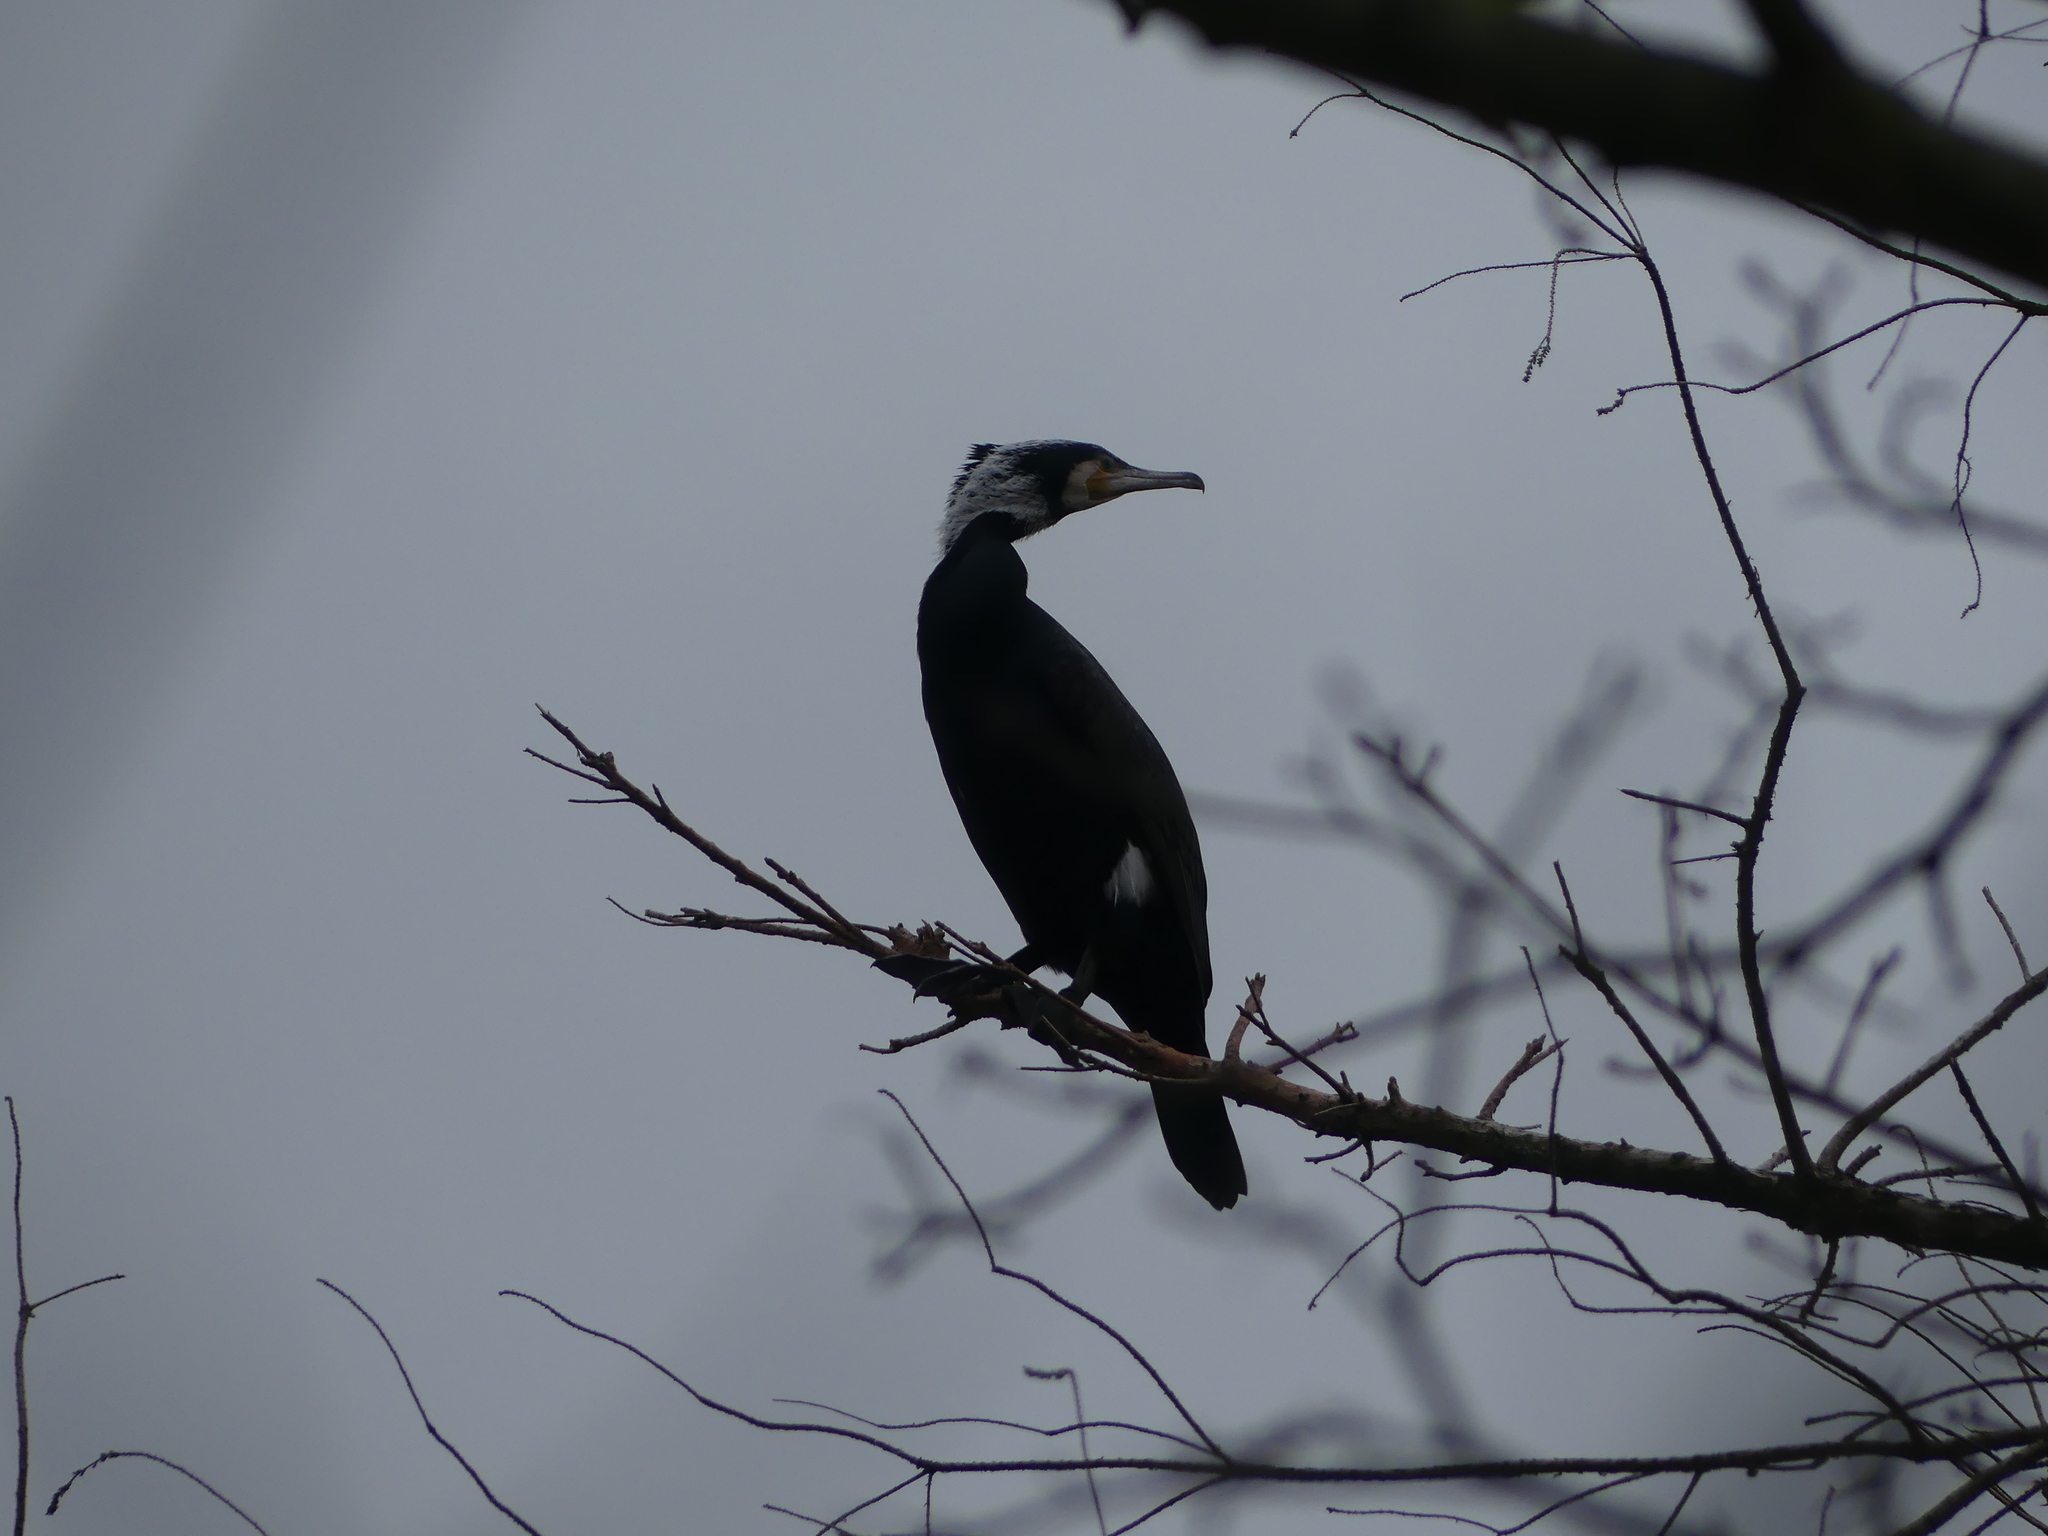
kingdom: Animalia
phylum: Chordata
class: Aves
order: Suliformes
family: Phalacrocoracidae
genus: Phalacrocorax
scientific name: Phalacrocorax carbo
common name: Great cormorant
